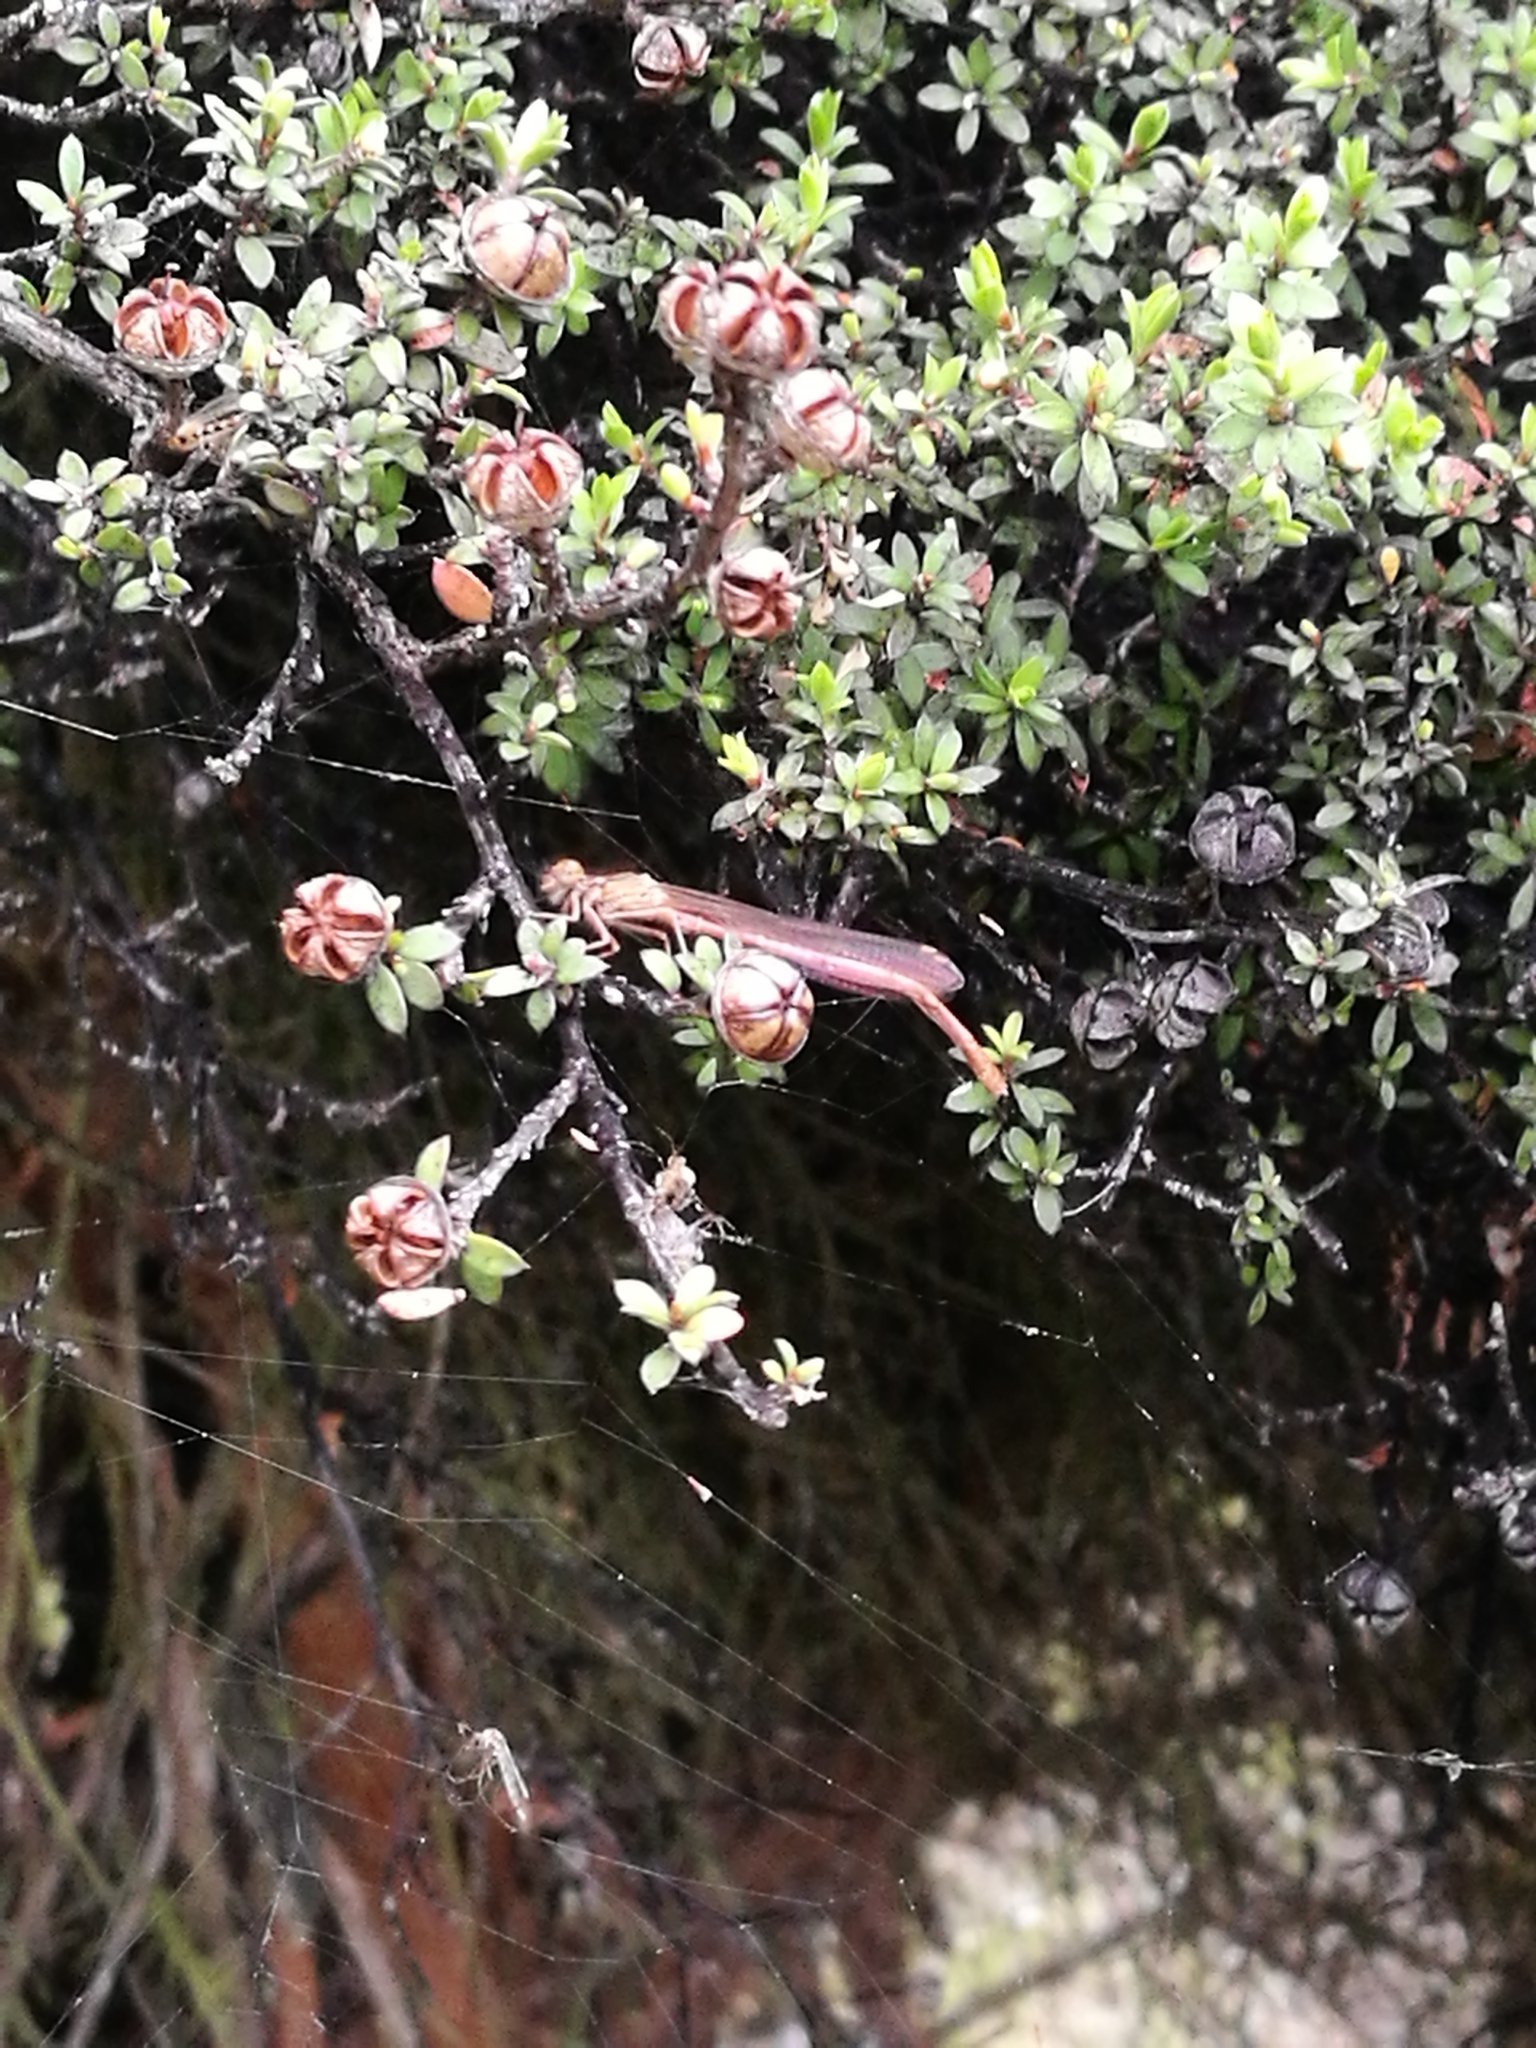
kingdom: Animalia
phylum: Arthropoda
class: Insecta
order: Odonata
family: Coenagrionidae
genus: Xanthocnemis
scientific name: Xanthocnemis zealandica
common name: Common redcoat damselfly
